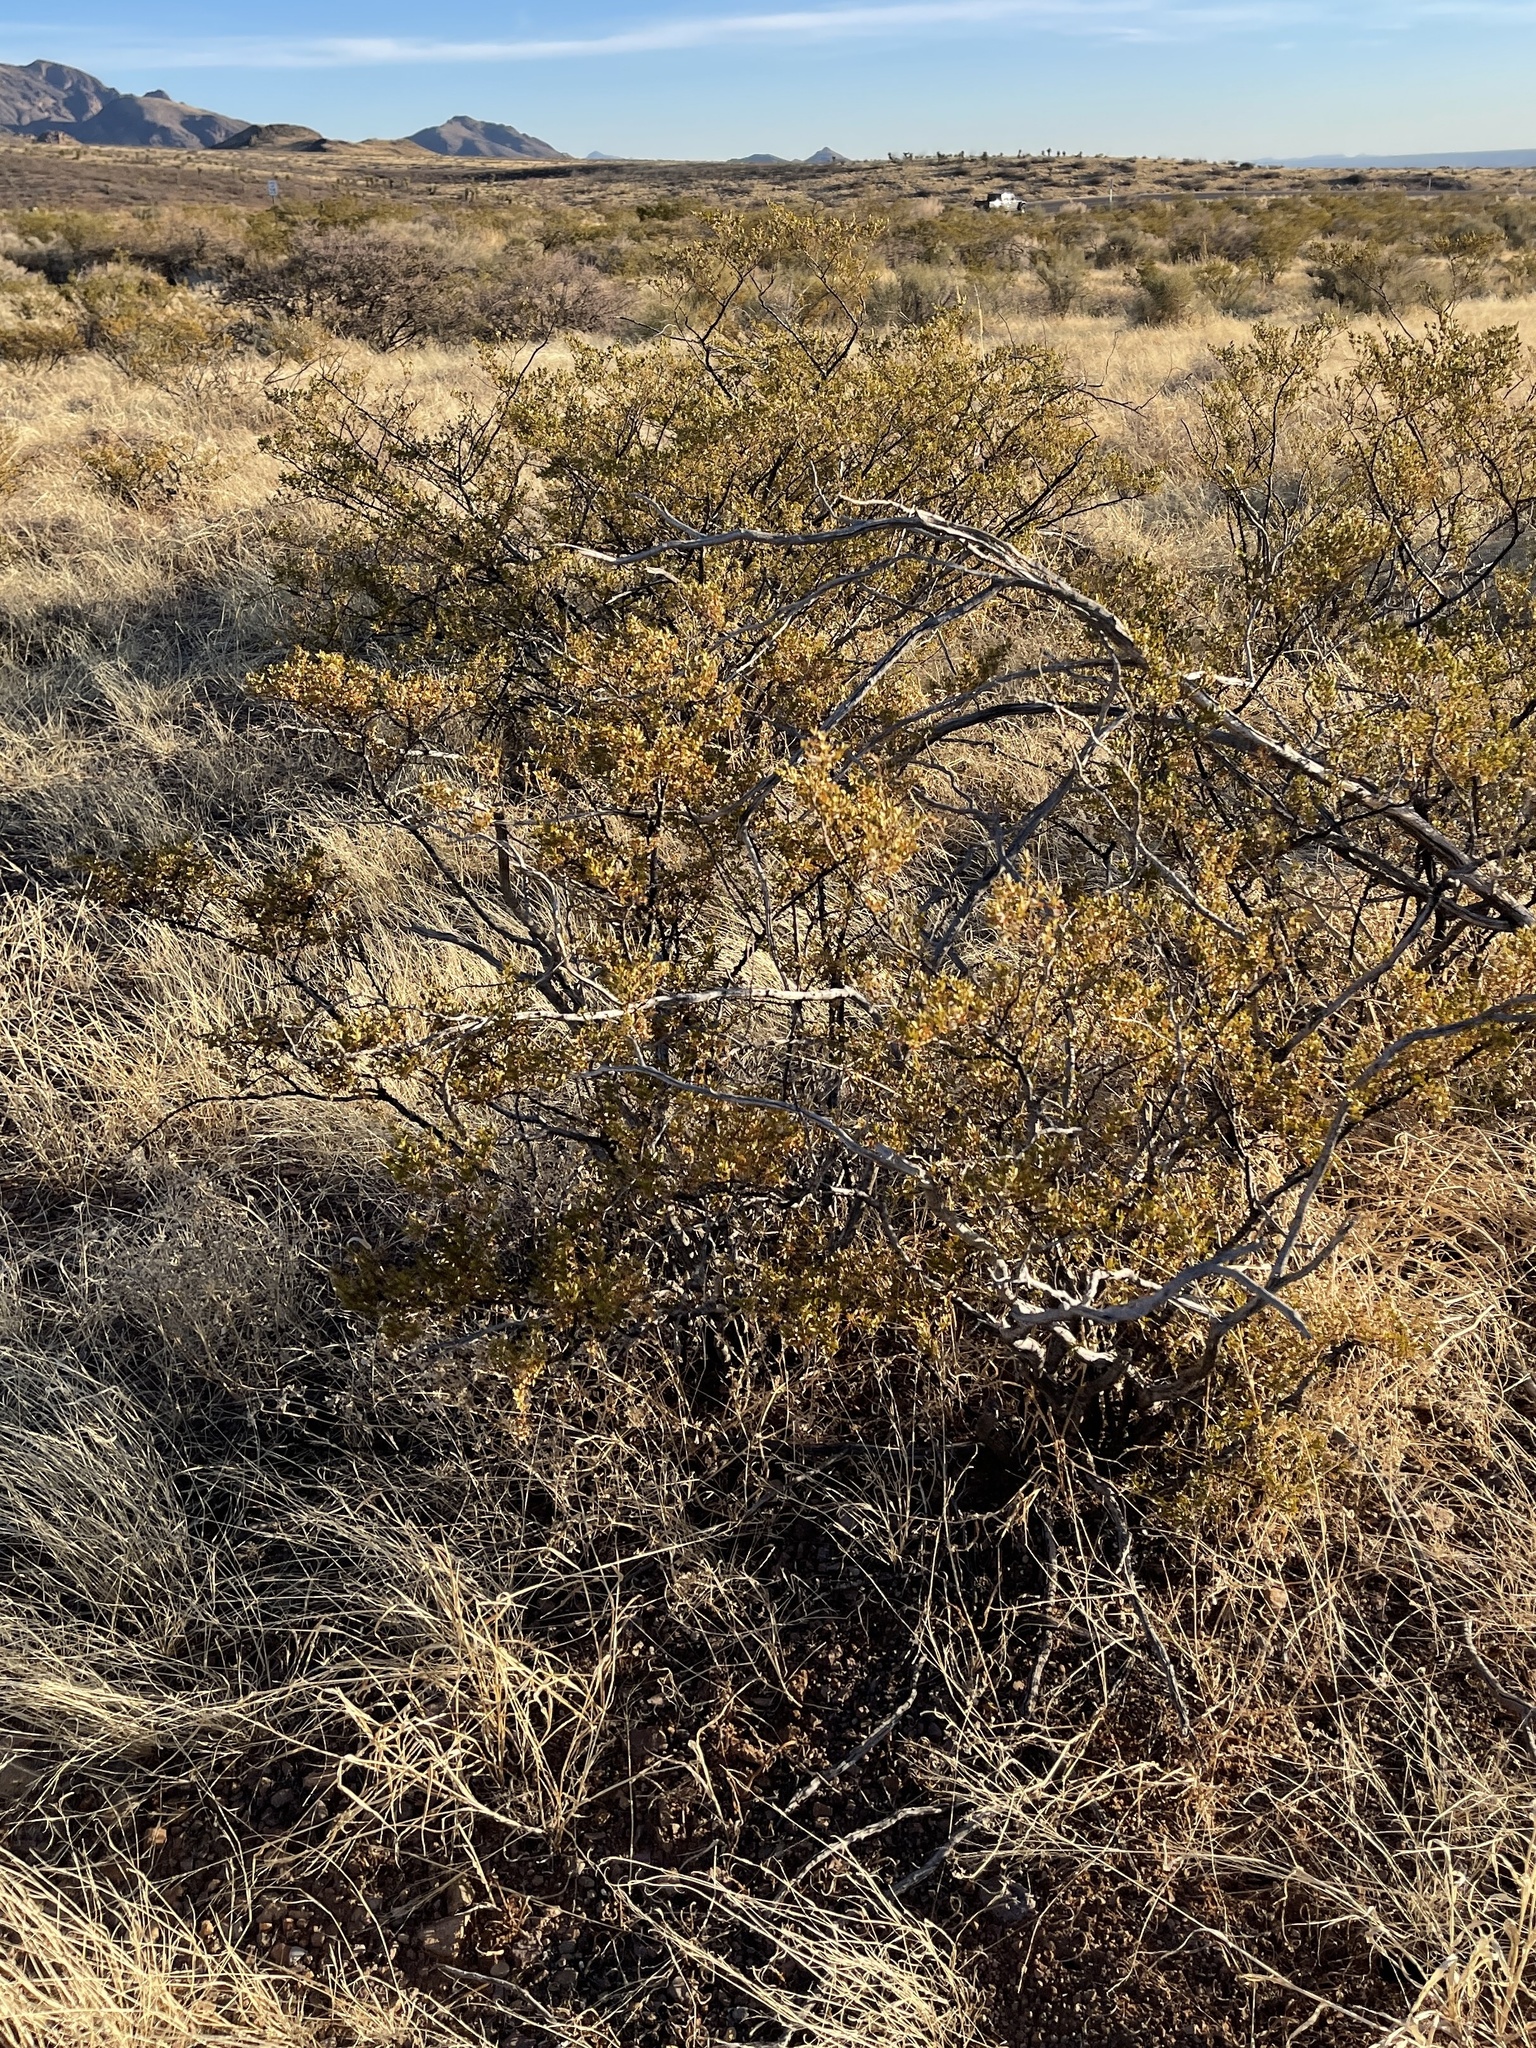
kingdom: Plantae
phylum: Tracheophyta
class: Magnoliopsida
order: Zygophyllales
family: Zygophyllaceae
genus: Larrea
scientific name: Larrea tridentata
